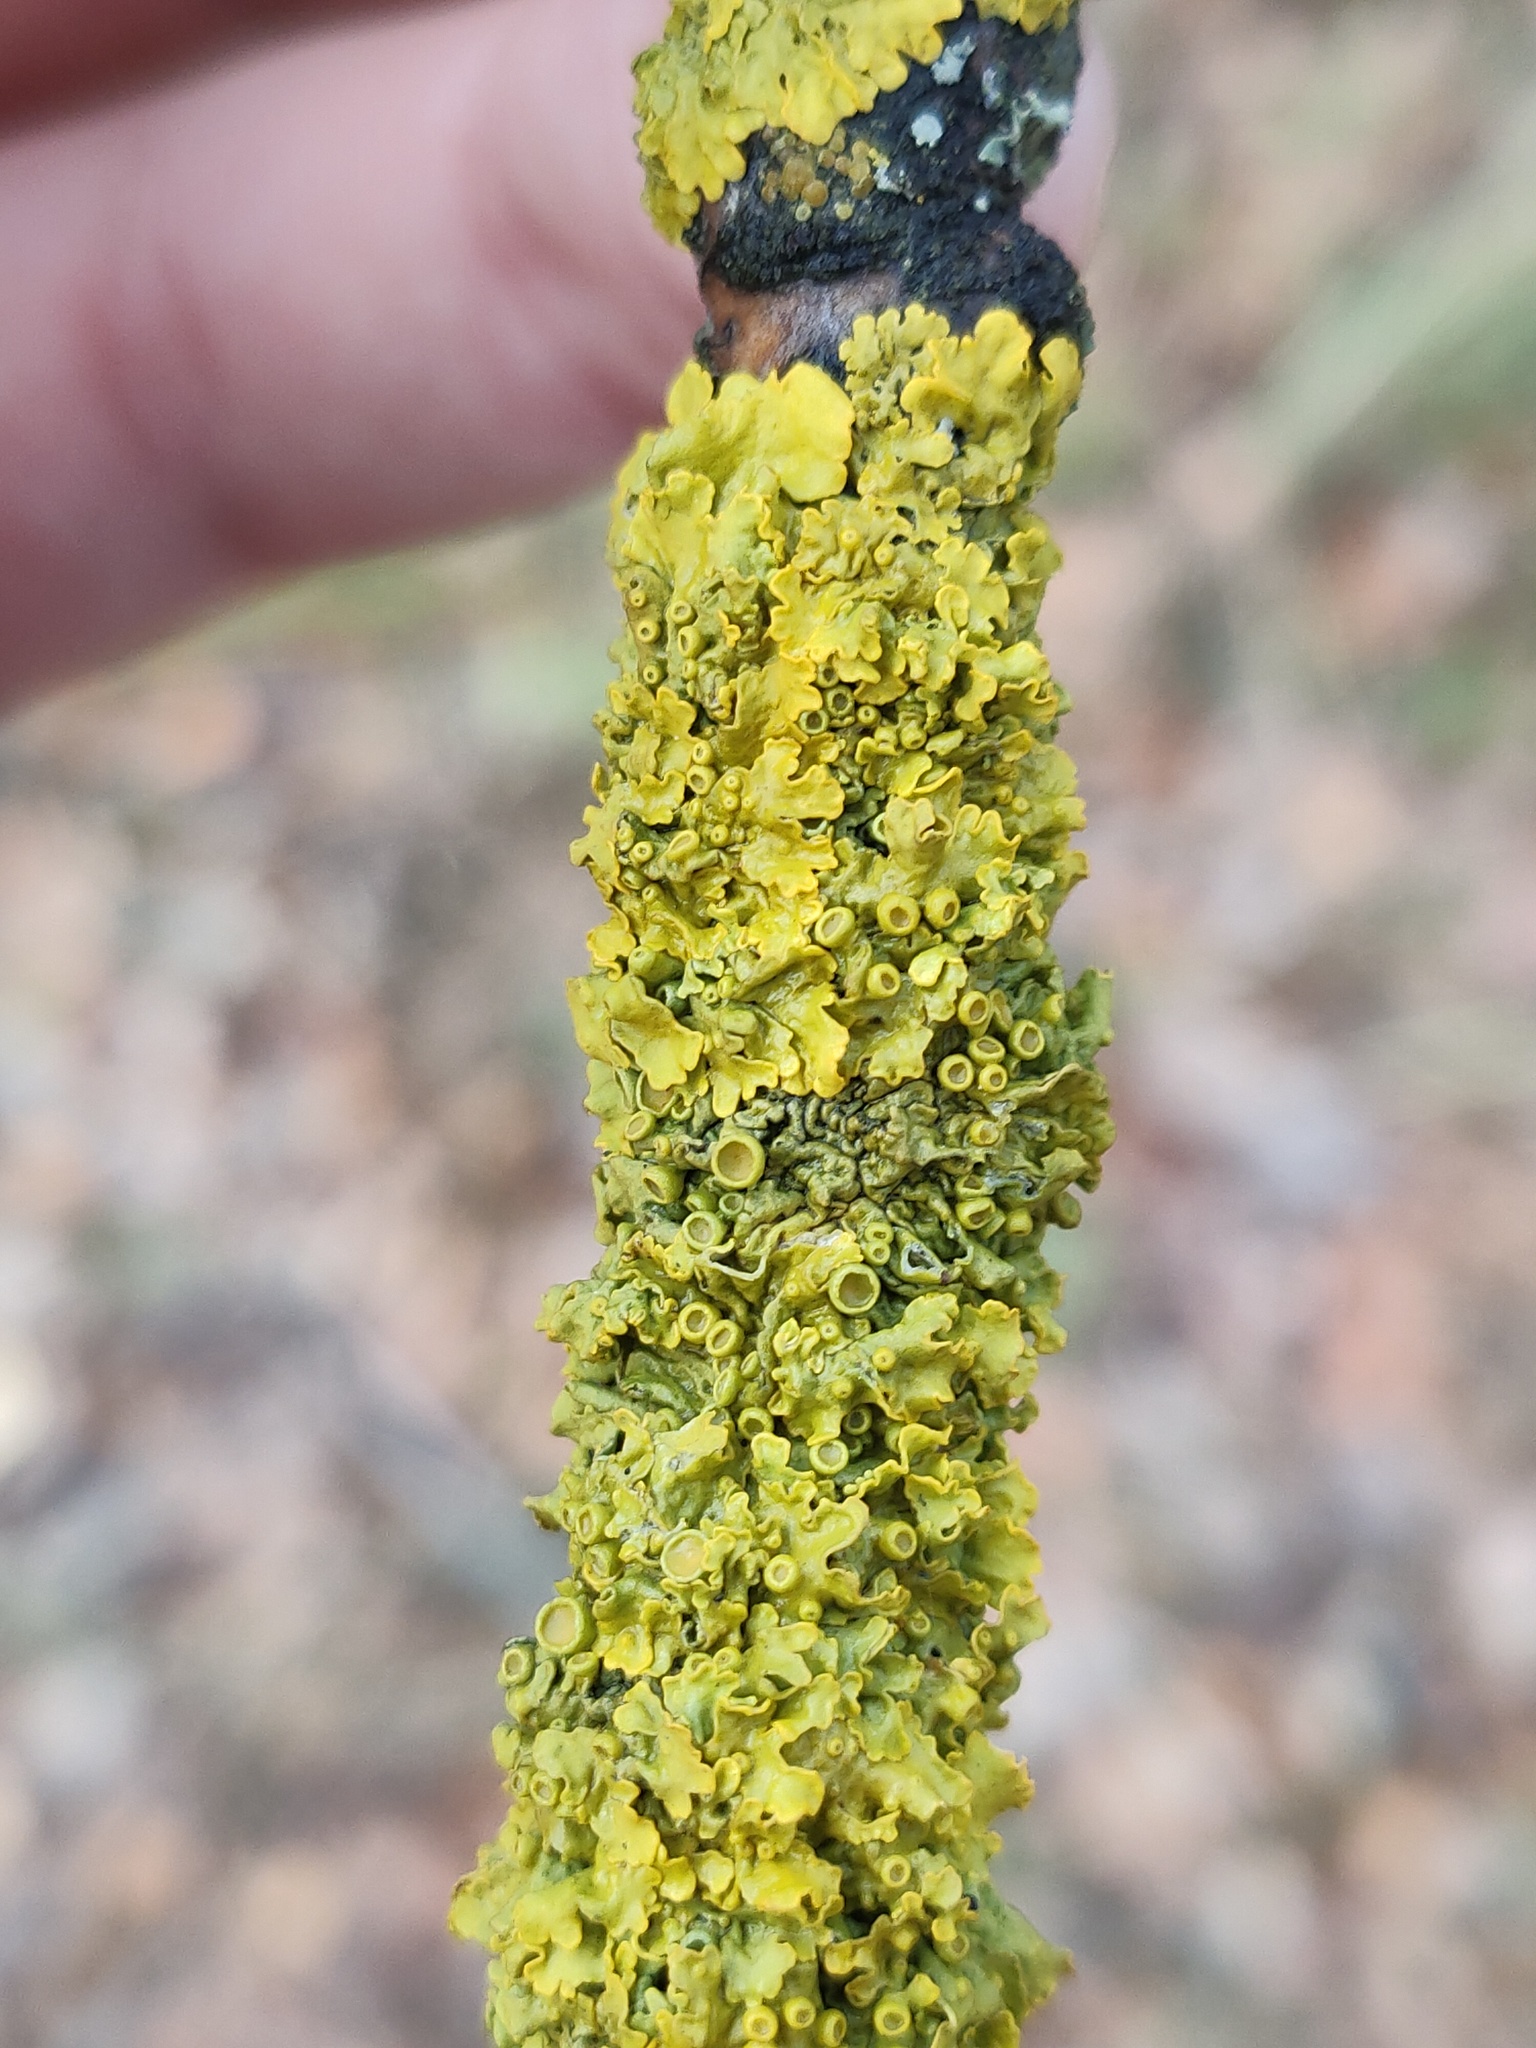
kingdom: Fungi
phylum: Ascomycota
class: Lecanoromycetes
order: Teloschistales
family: Teloschistaceae
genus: Xanthoria
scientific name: Xanthoria parietina
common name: Common orange lichen
